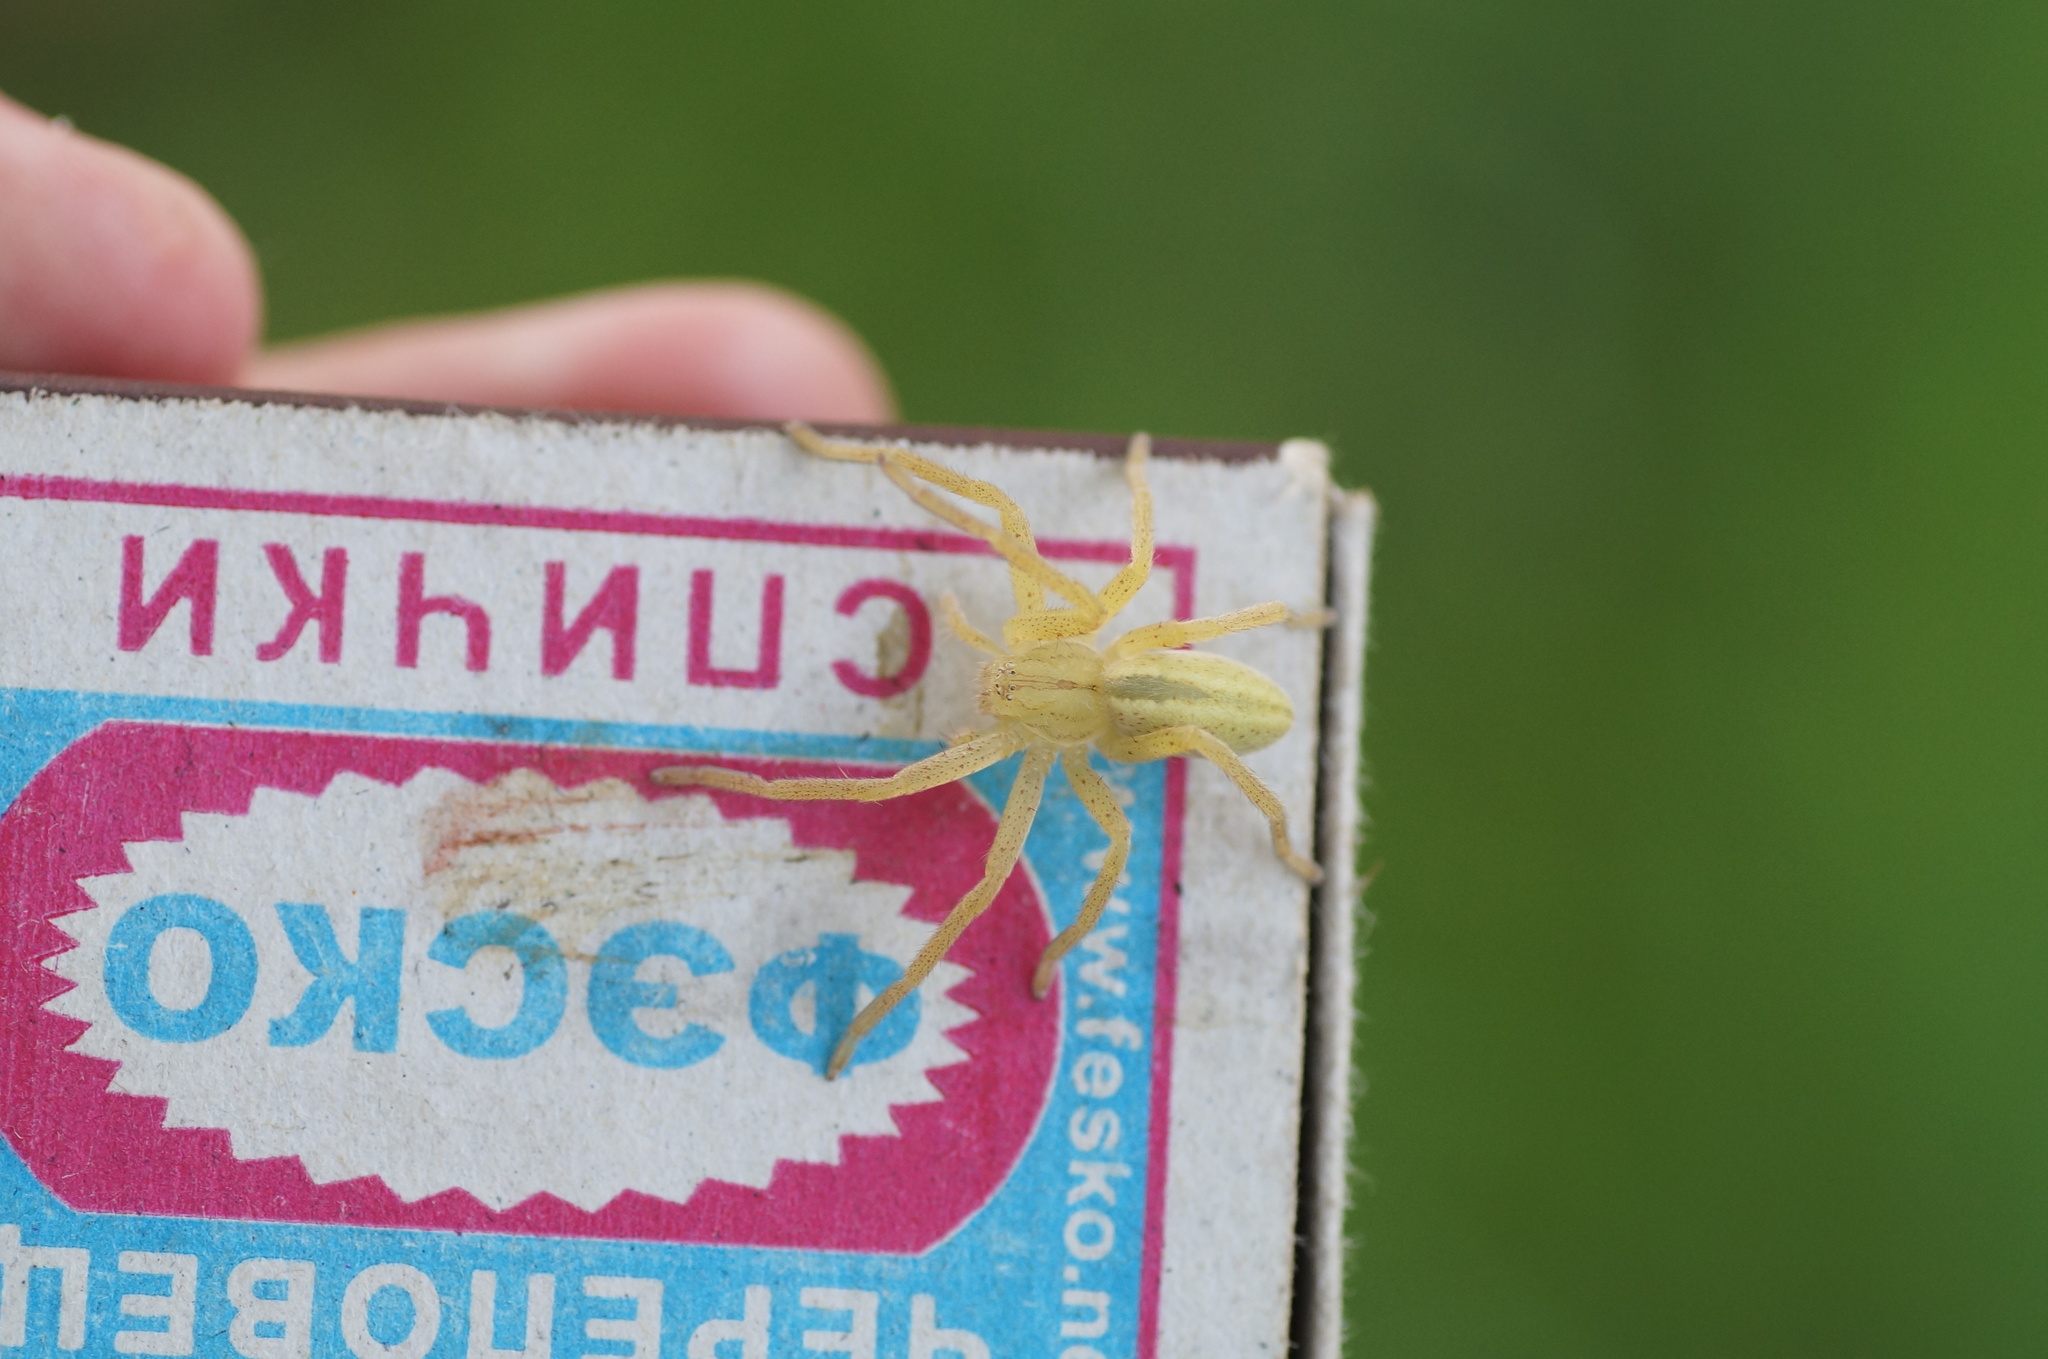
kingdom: Animalia
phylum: Arthropoda
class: Arachnida
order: Araneae
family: Sparassidae
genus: Micrommata
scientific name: Micrommata virescens
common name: Green spider
